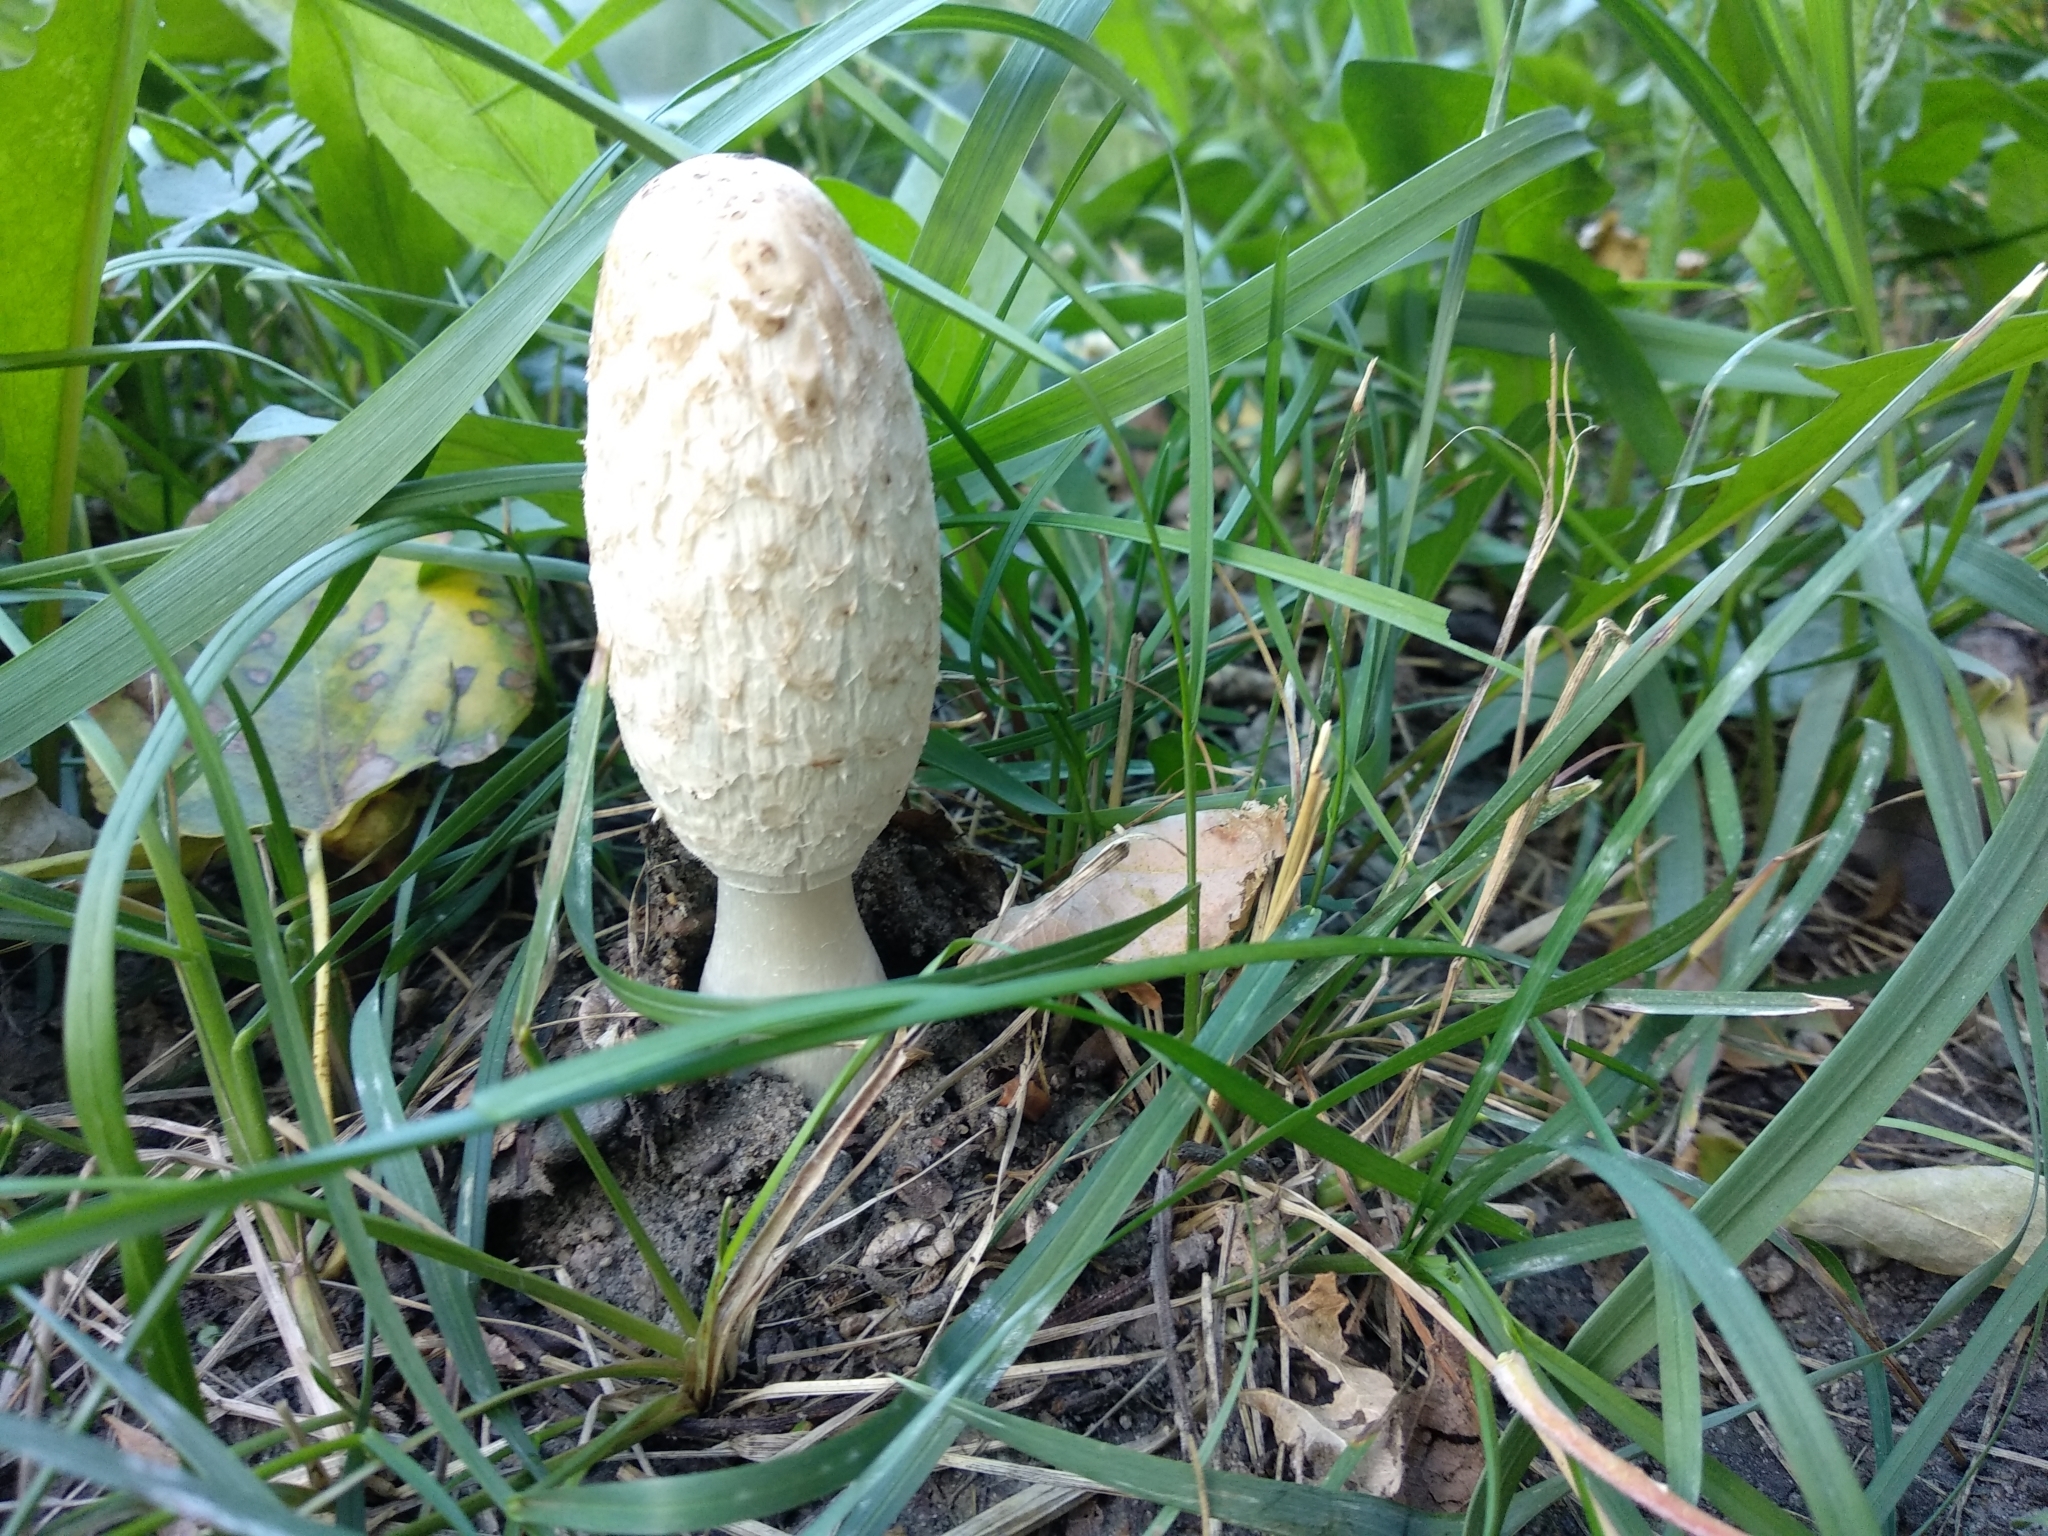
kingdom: Fungi
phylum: Basidiomycota
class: Agaricomycetes
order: Agaricales
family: Agaricaceae
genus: Coprinus
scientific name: Coprinus comatus
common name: Lawyer's wig
